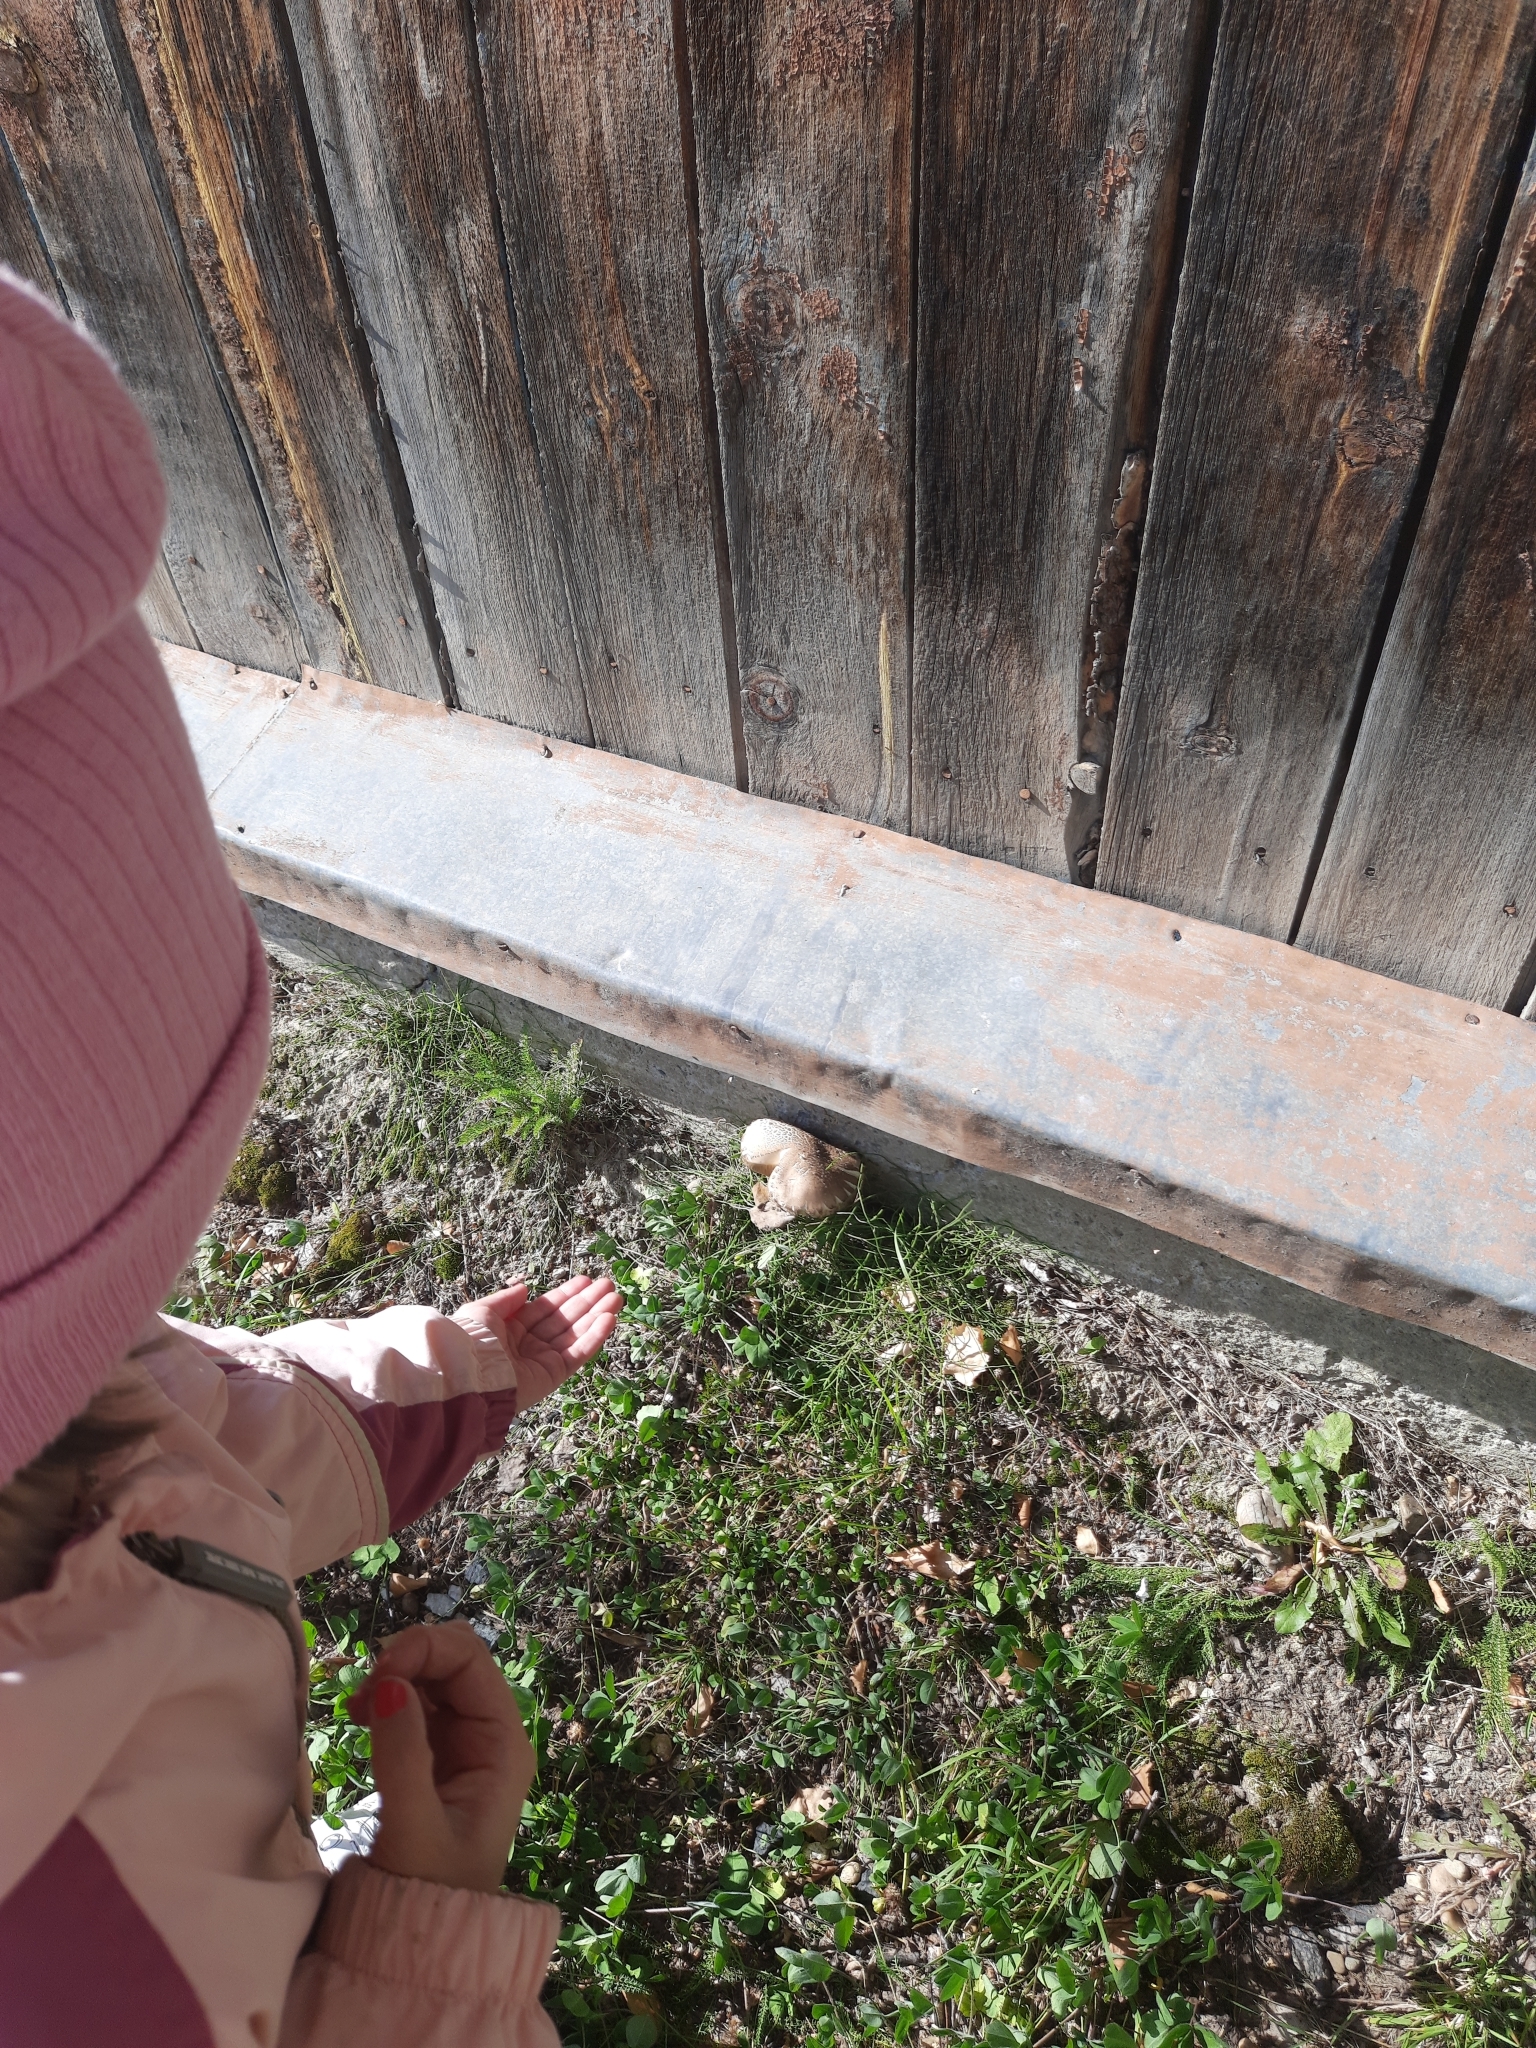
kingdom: Fungi
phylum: Basidiomycota
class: Agaricomycetes
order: Boletales
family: Boletaceae
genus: Leccinum
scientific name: Leccinum scabrum
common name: Blushing bolete
